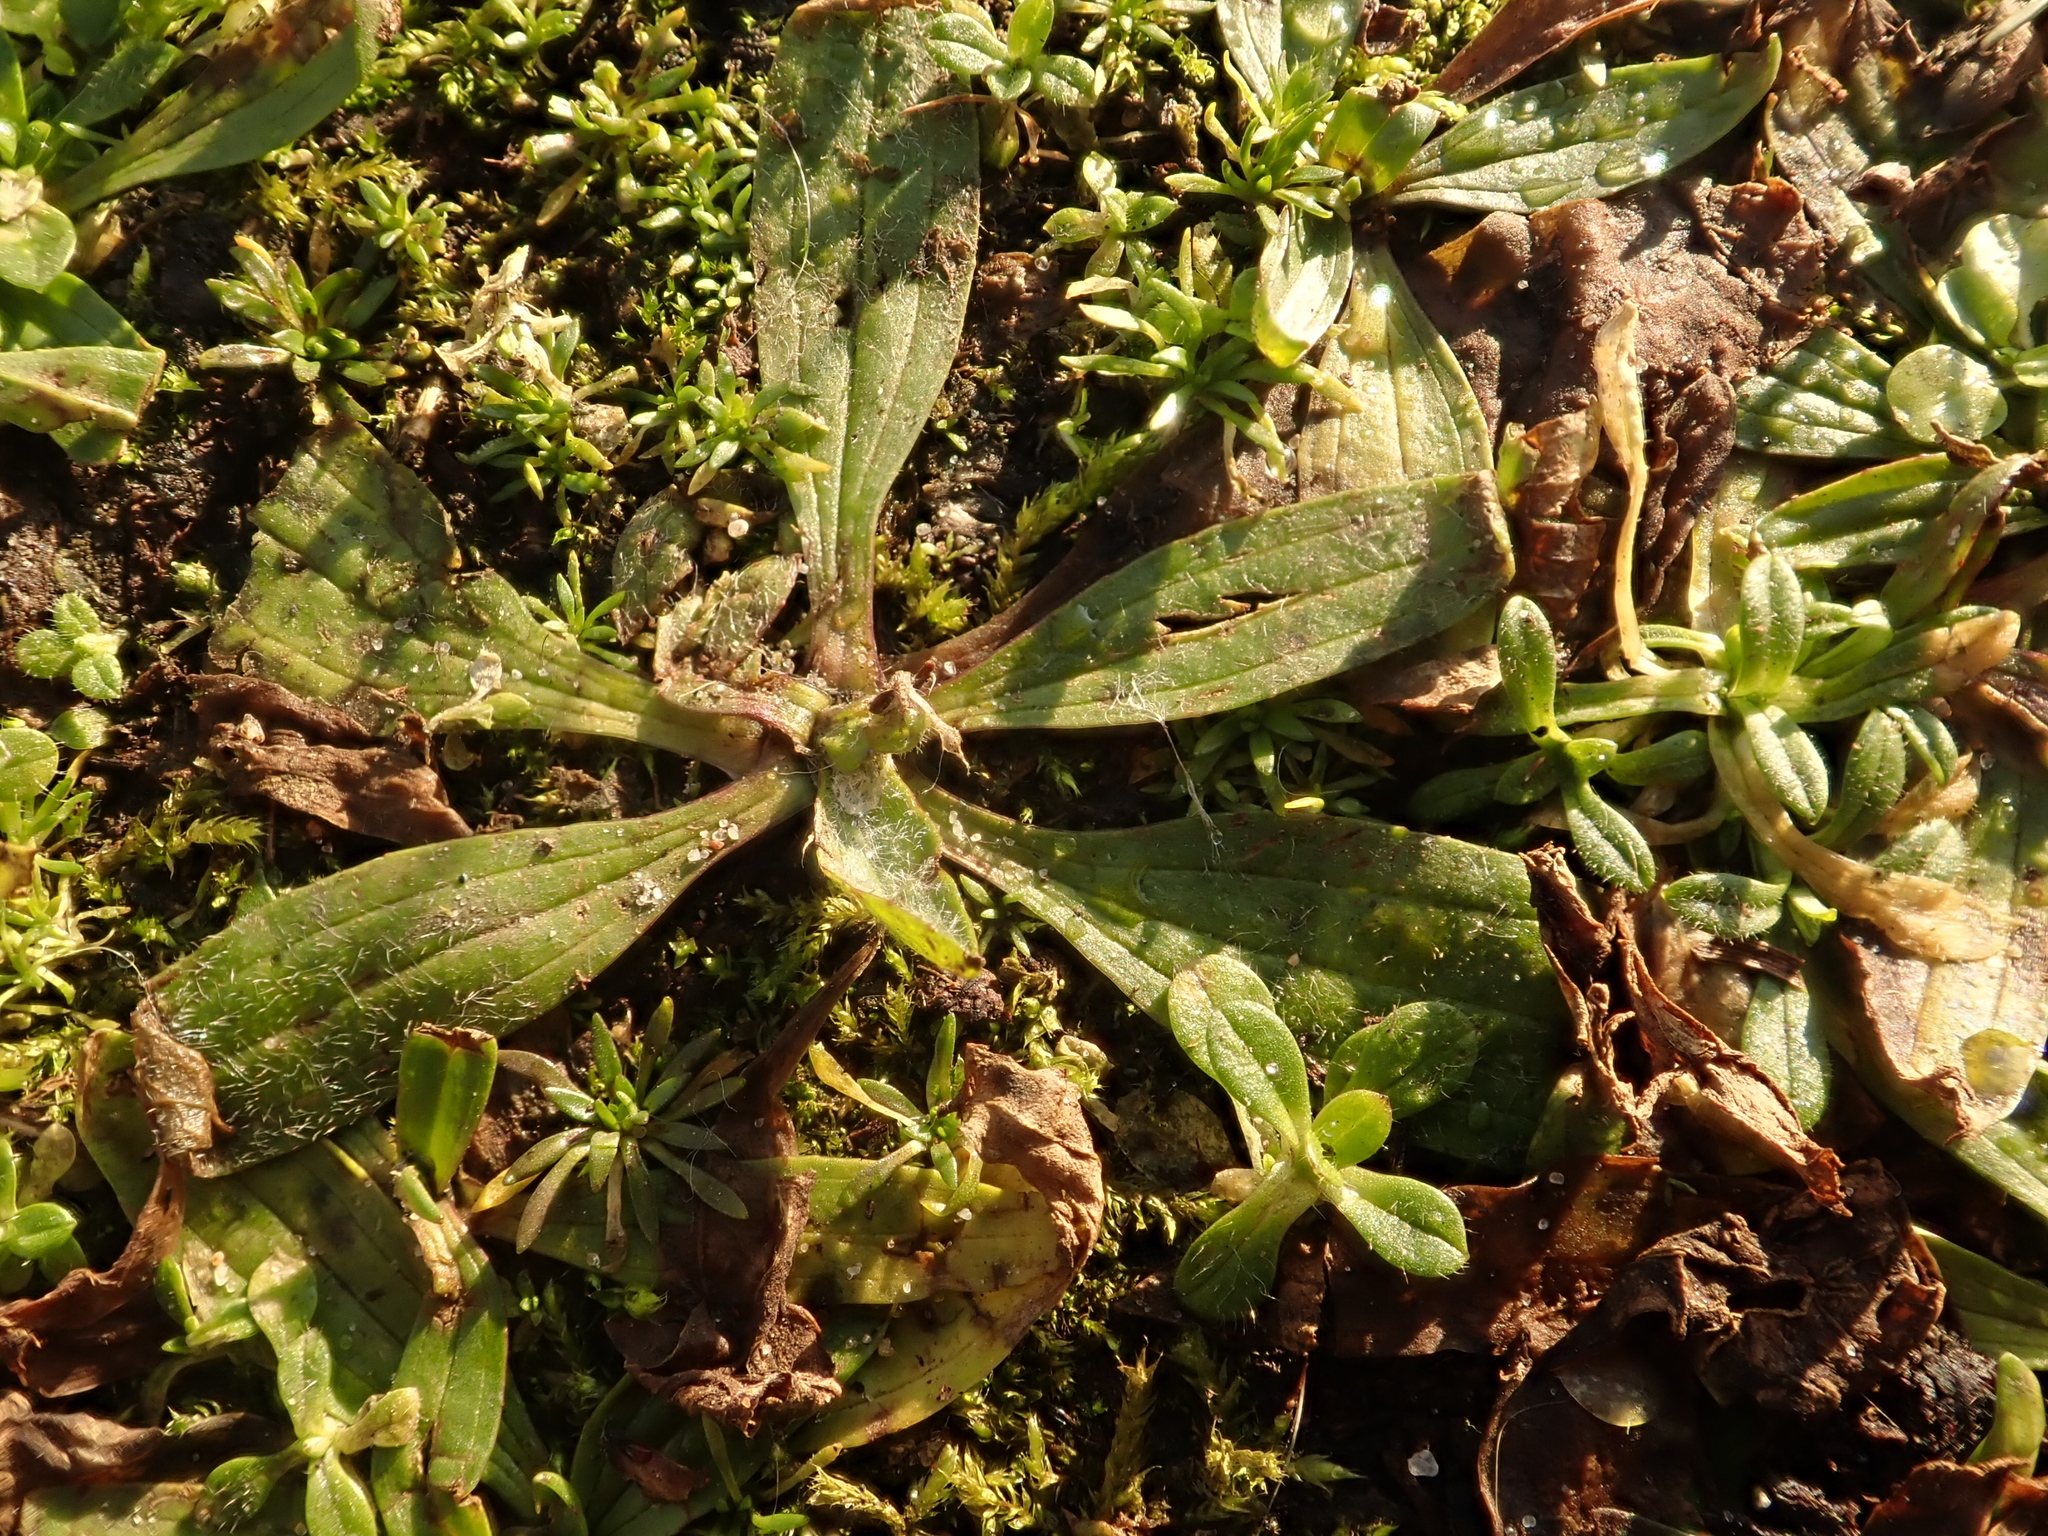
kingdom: Plantae
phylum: Tracheophyta
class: Magnoliopsida
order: Lamiales
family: Plantaginaceae
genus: Plantago
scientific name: Plantago lanceolata
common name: Ribwort plantain
